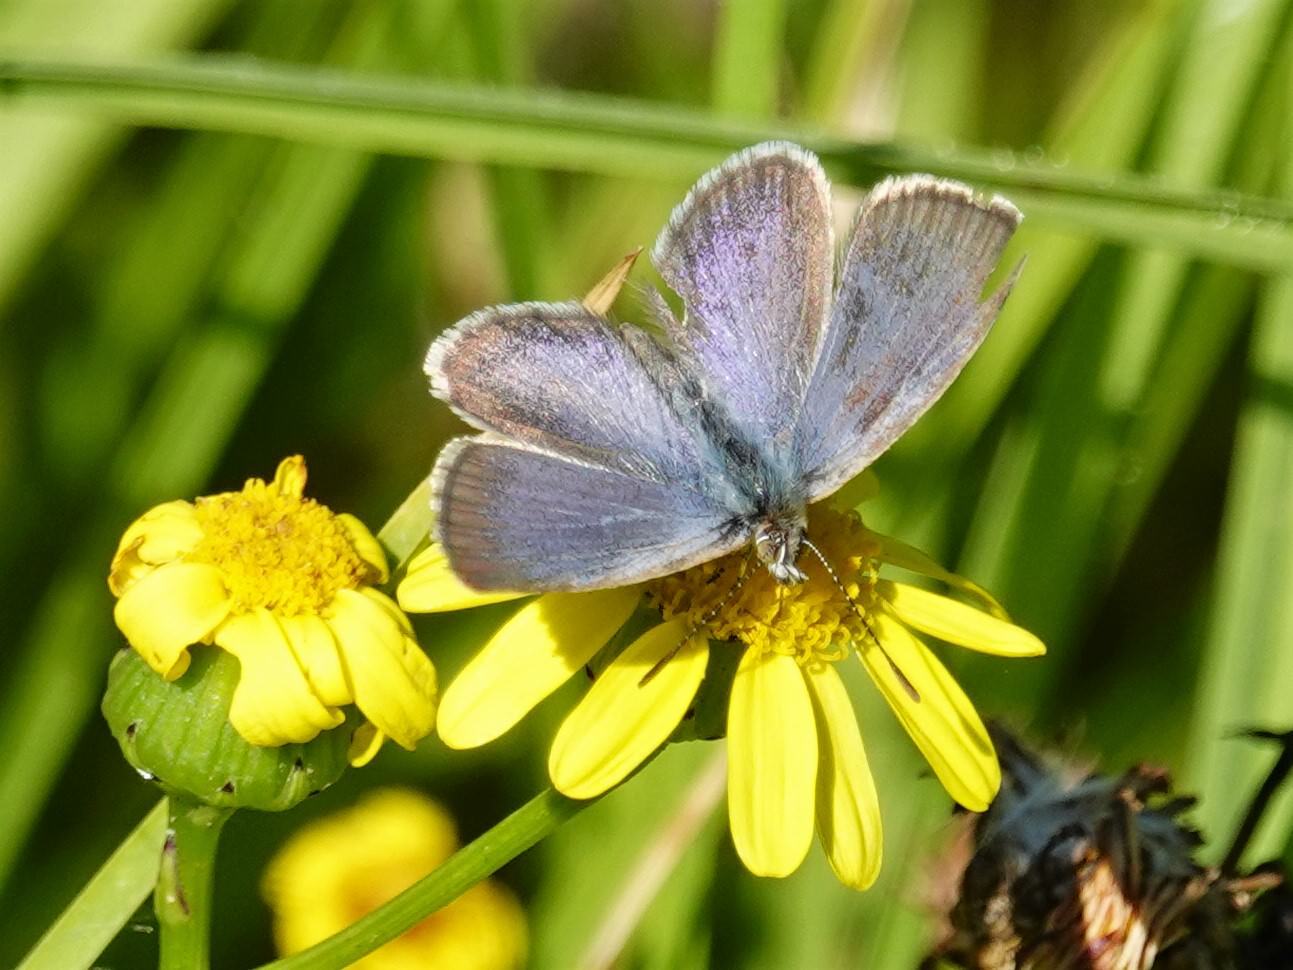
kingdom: Animalia
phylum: Arthropoda
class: Insecta
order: Lepidoptera
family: Lycaenidae
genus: Zizina
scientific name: Zizina labradus
